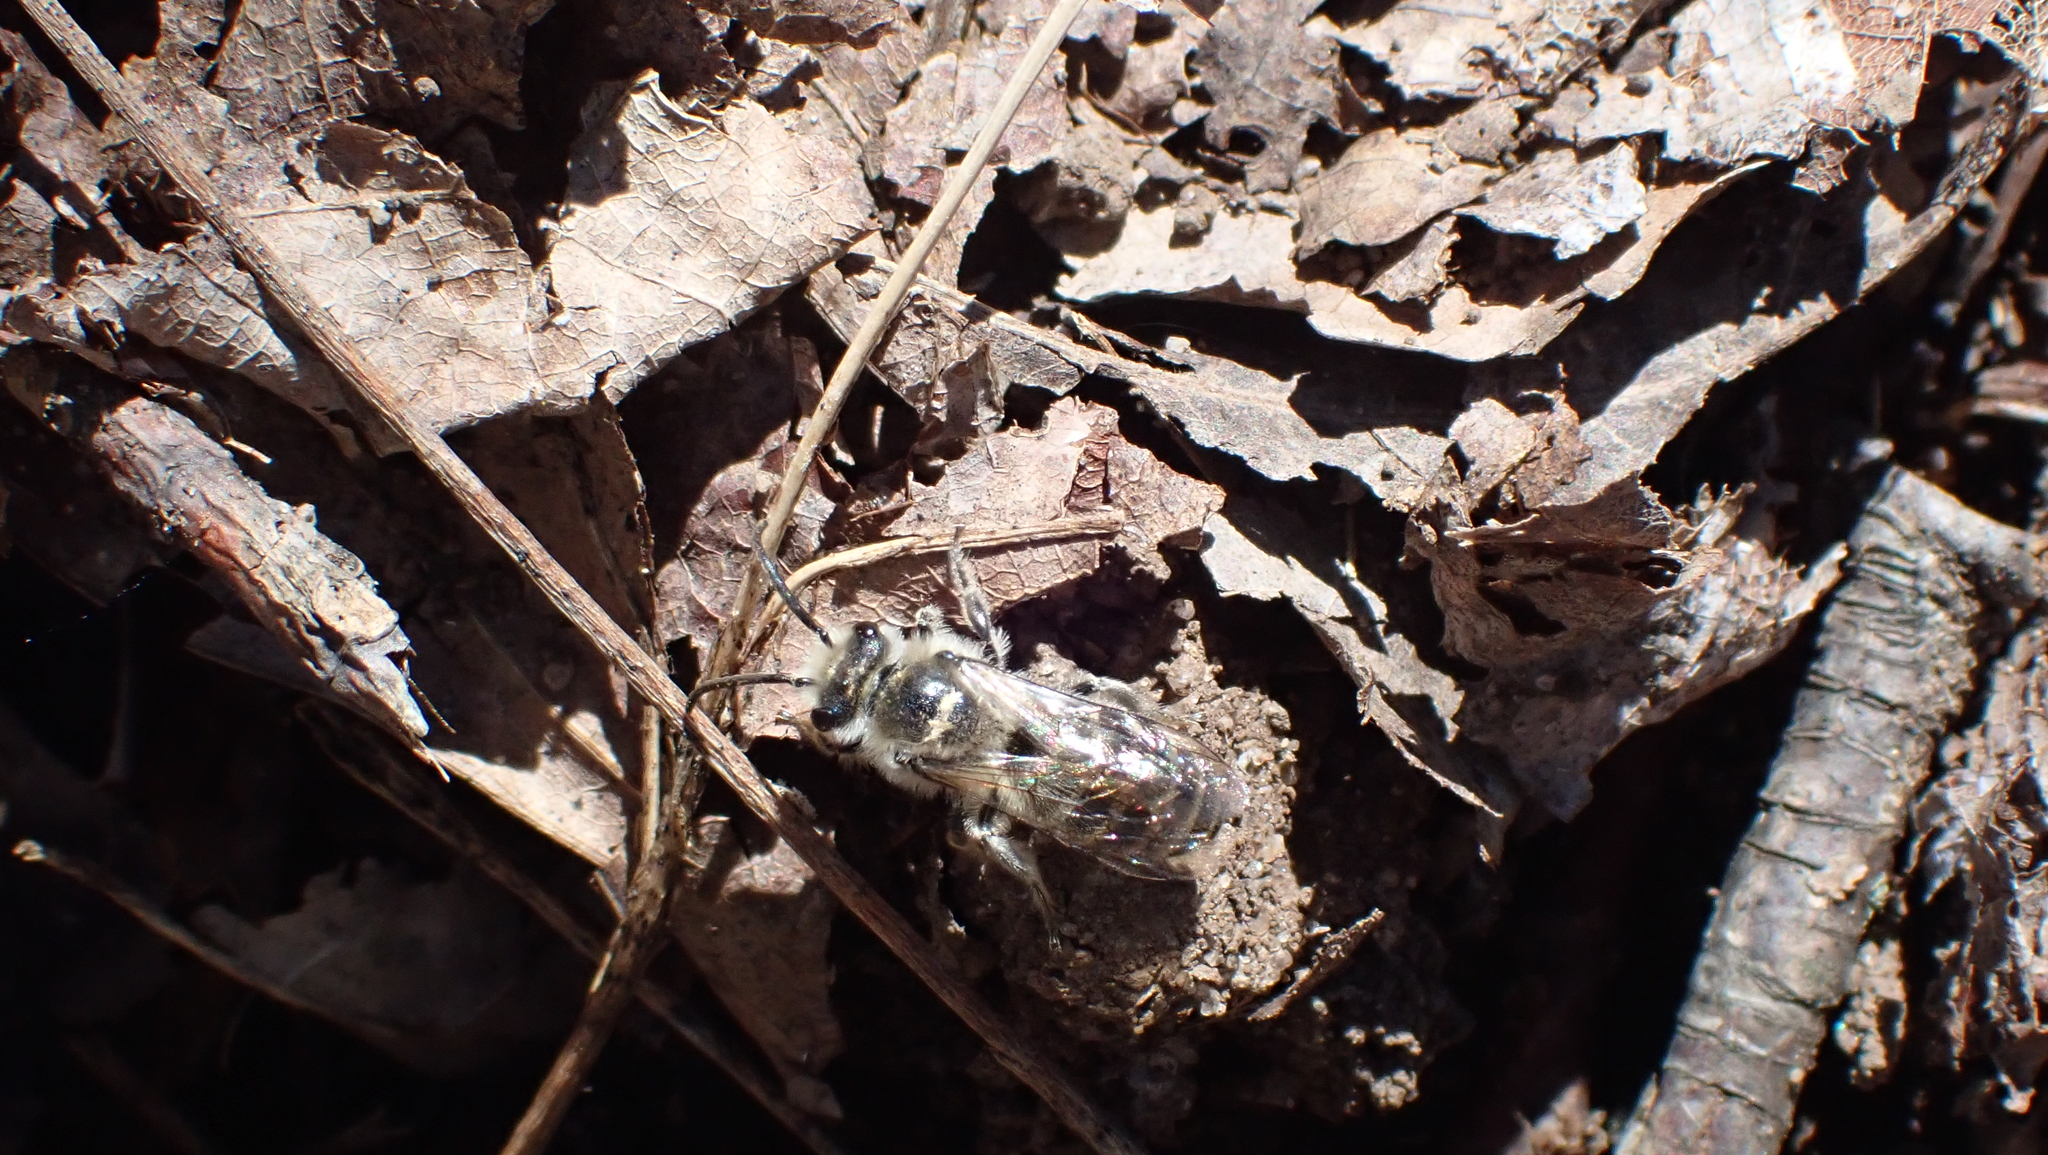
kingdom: Animalia
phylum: Arthropoda
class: Insecta
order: Hymenoptera
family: Colletidae
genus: Colletes
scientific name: Colletes inaequalis
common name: Unequal cellophane bee
